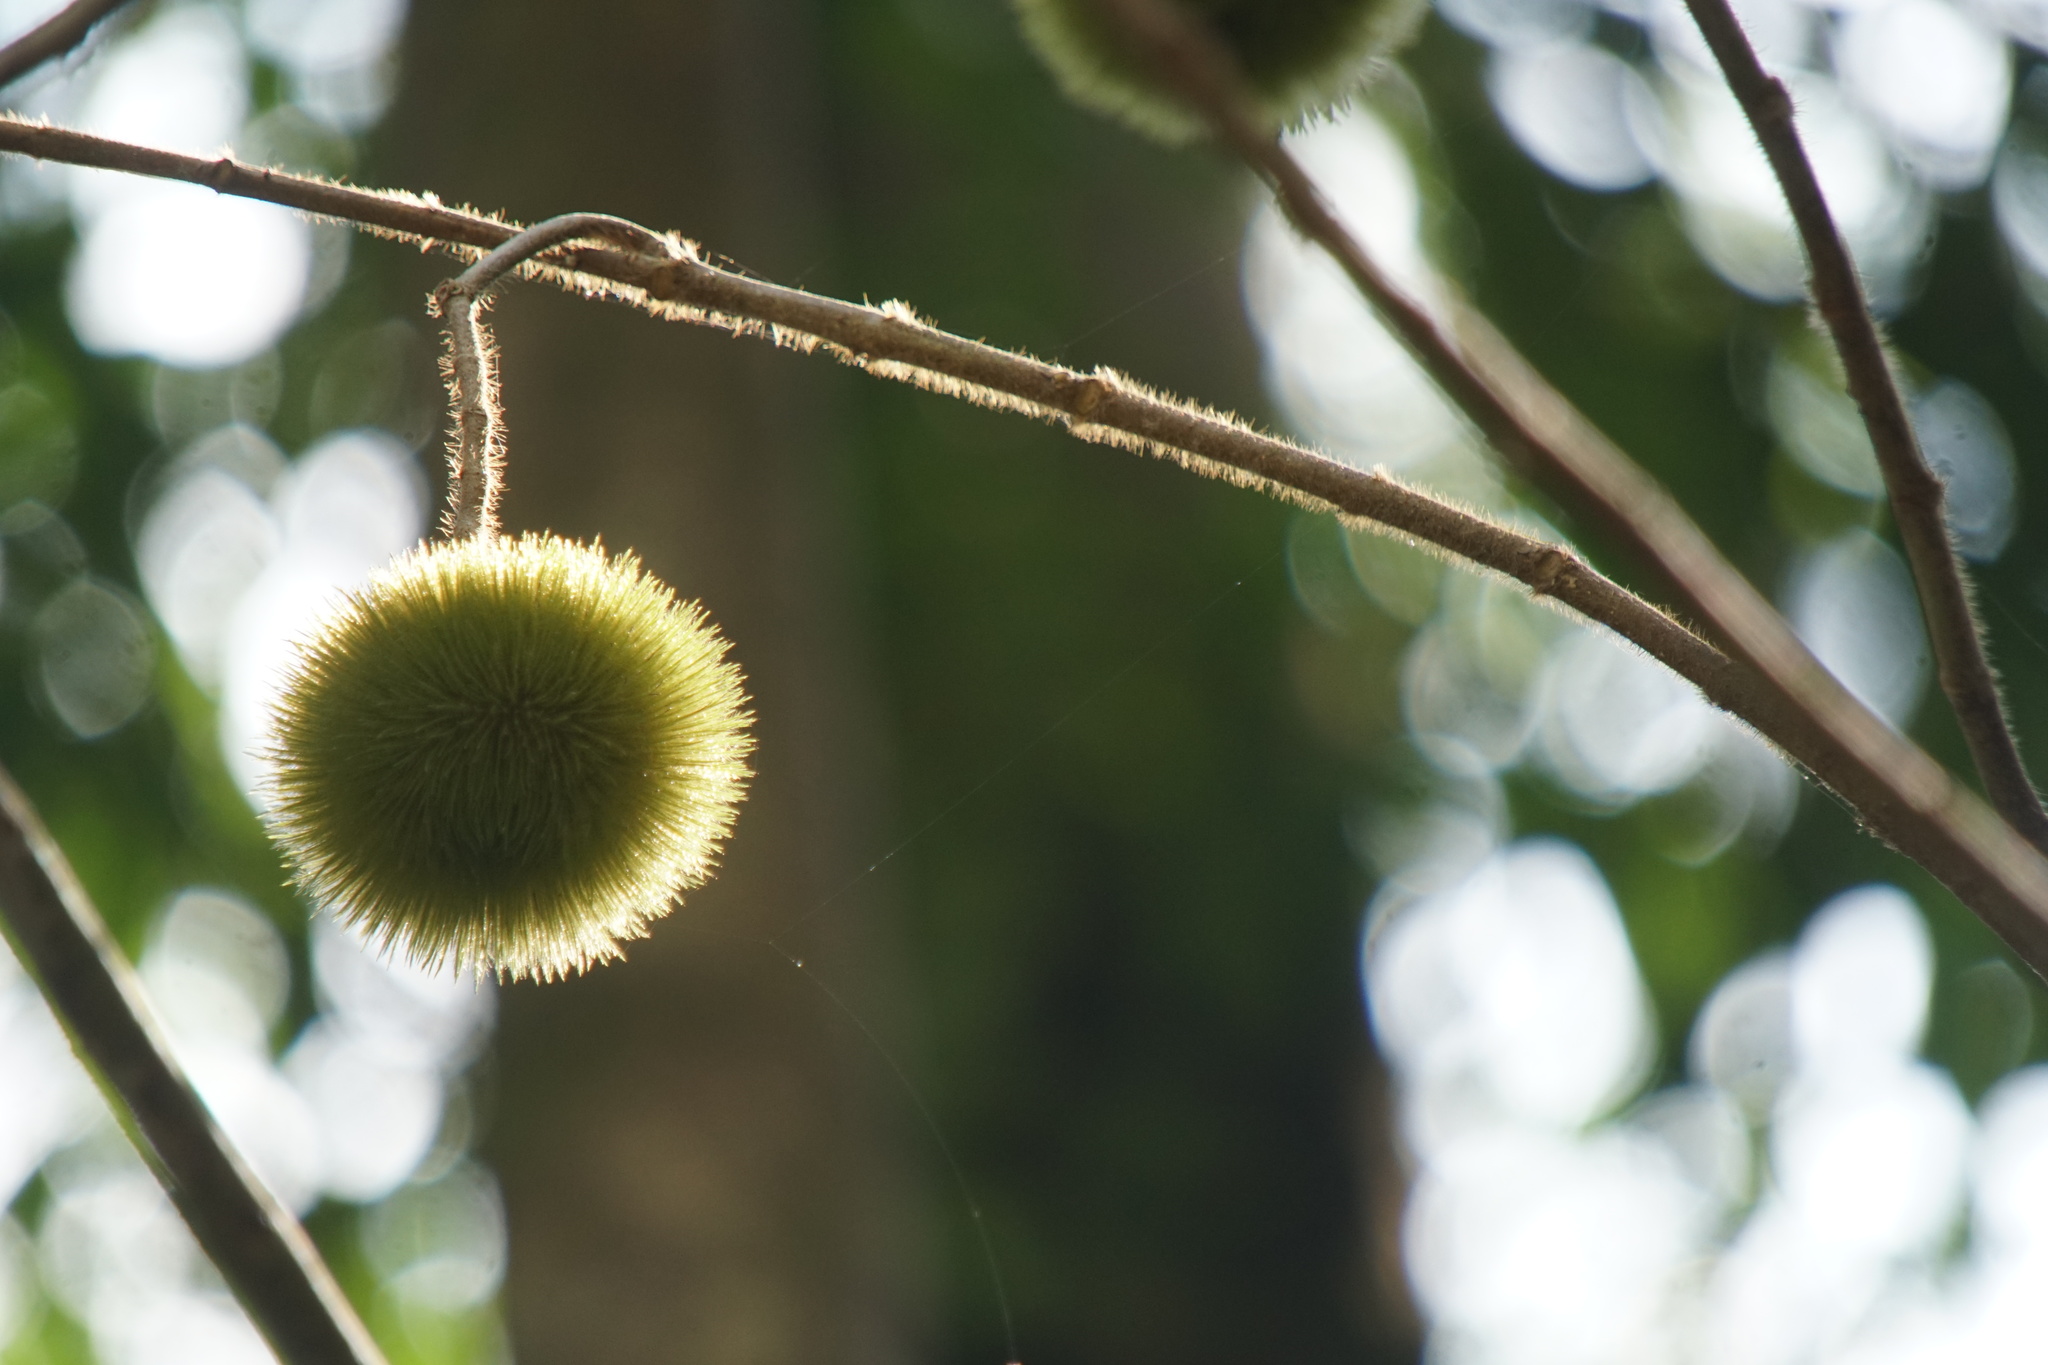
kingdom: Plantae
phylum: Tracheophyta
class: Magnoliopsida
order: Malvales
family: Malvaceae
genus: Apeiba
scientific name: Apeiba tibourbou
